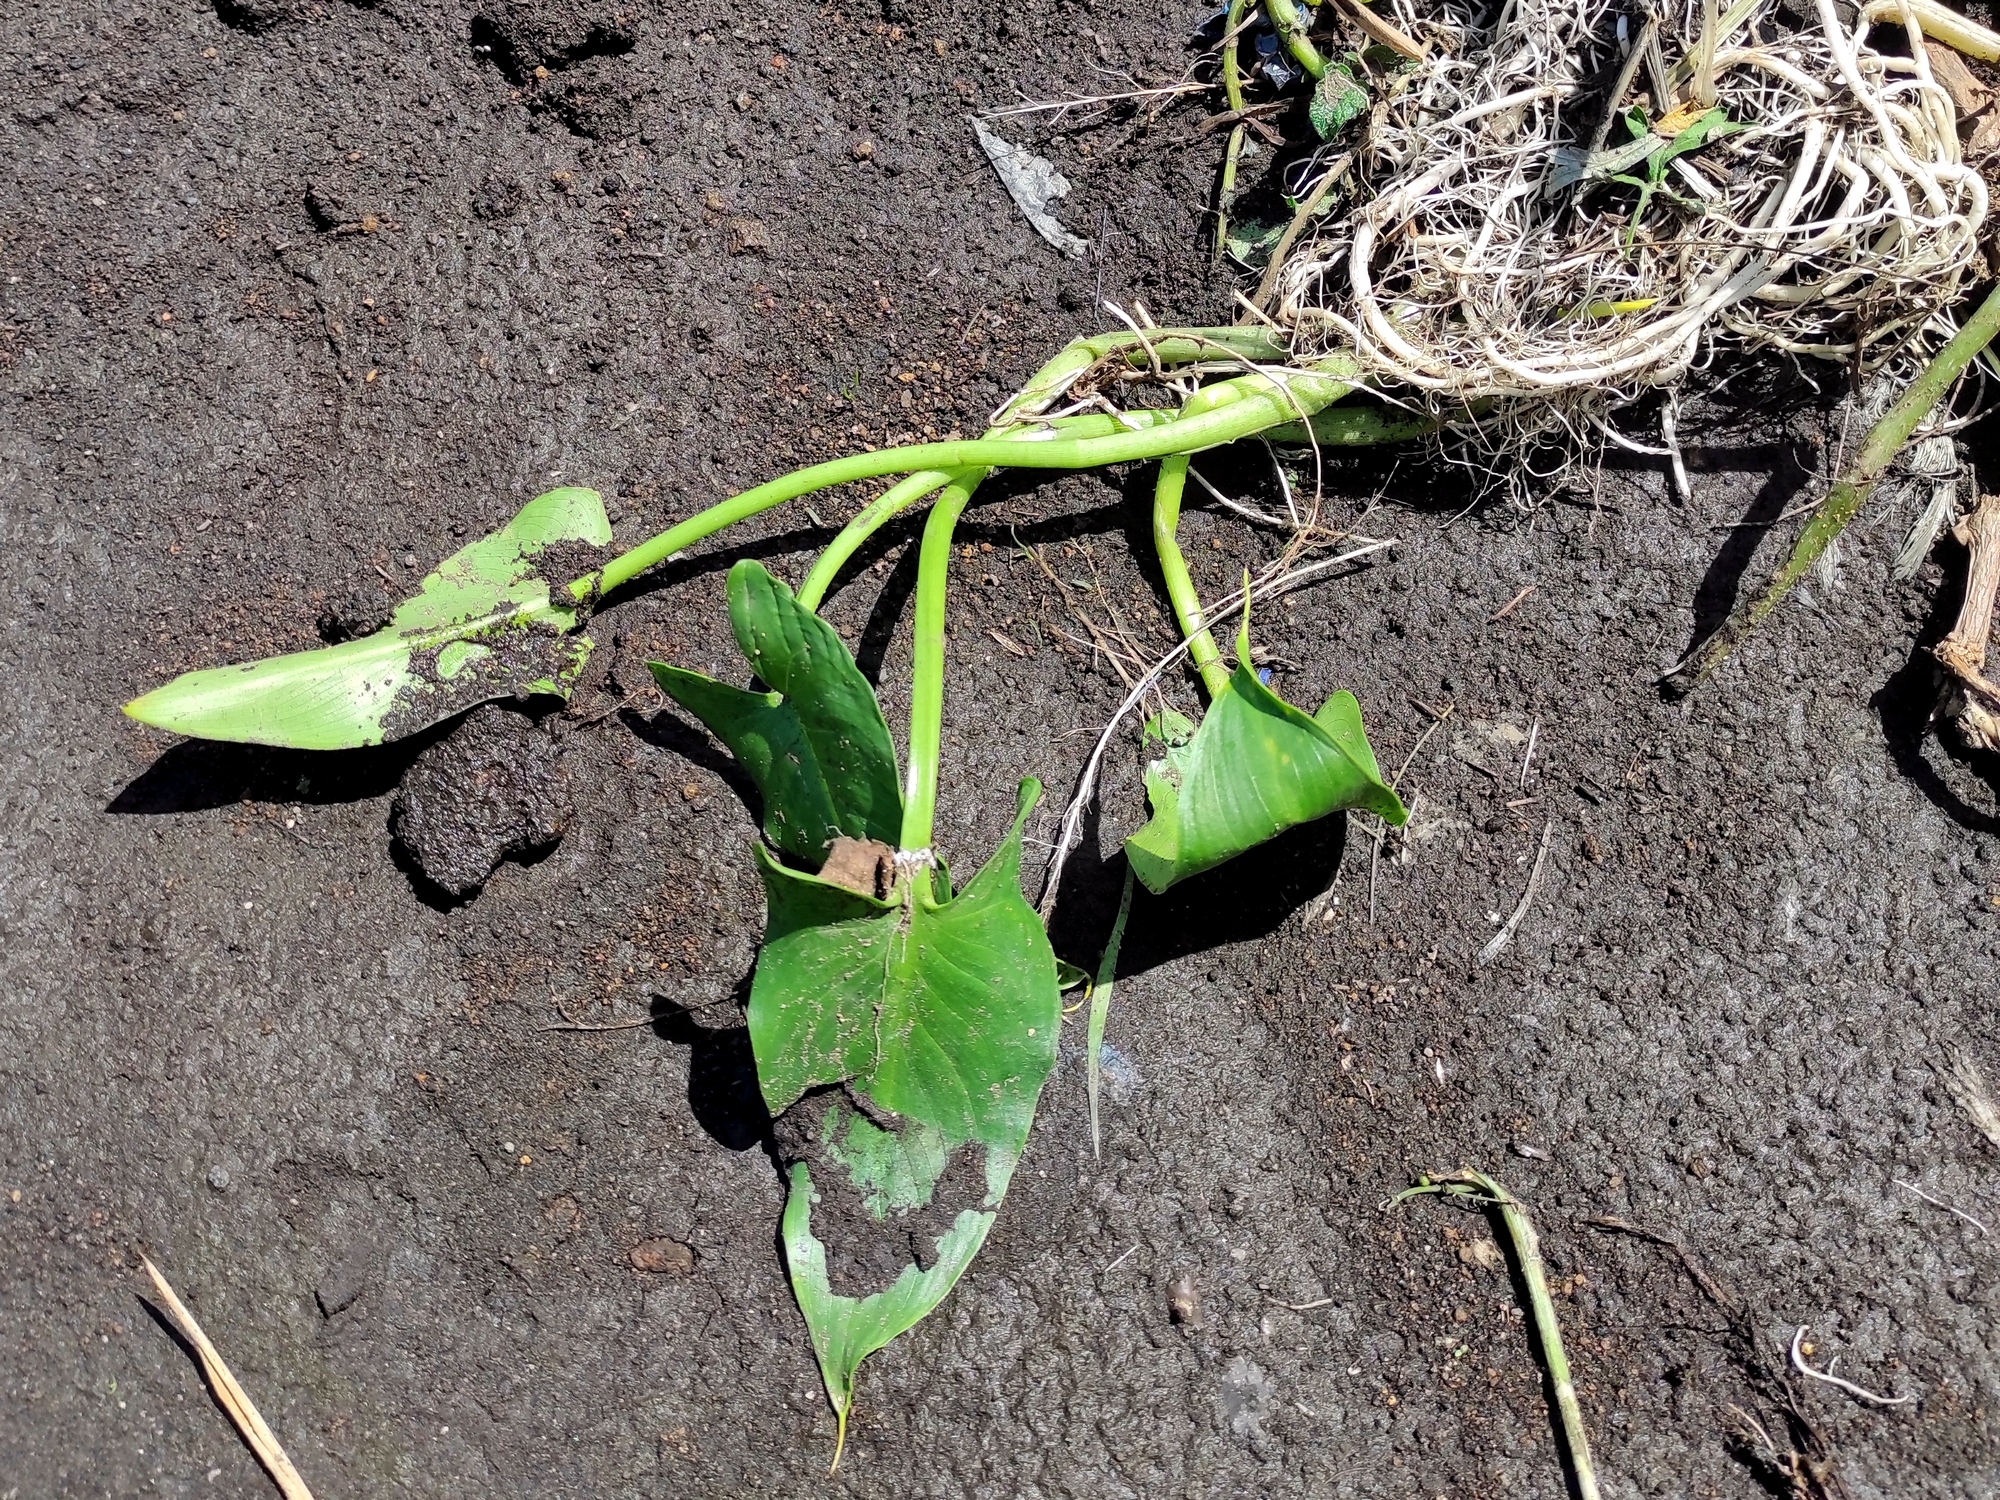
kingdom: Plantae
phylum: Tracheophyta
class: Liliopsida
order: Alismatales
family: Araceae
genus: Zantedeschia
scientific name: Zantedeschia aethiopica
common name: Altar-lily
